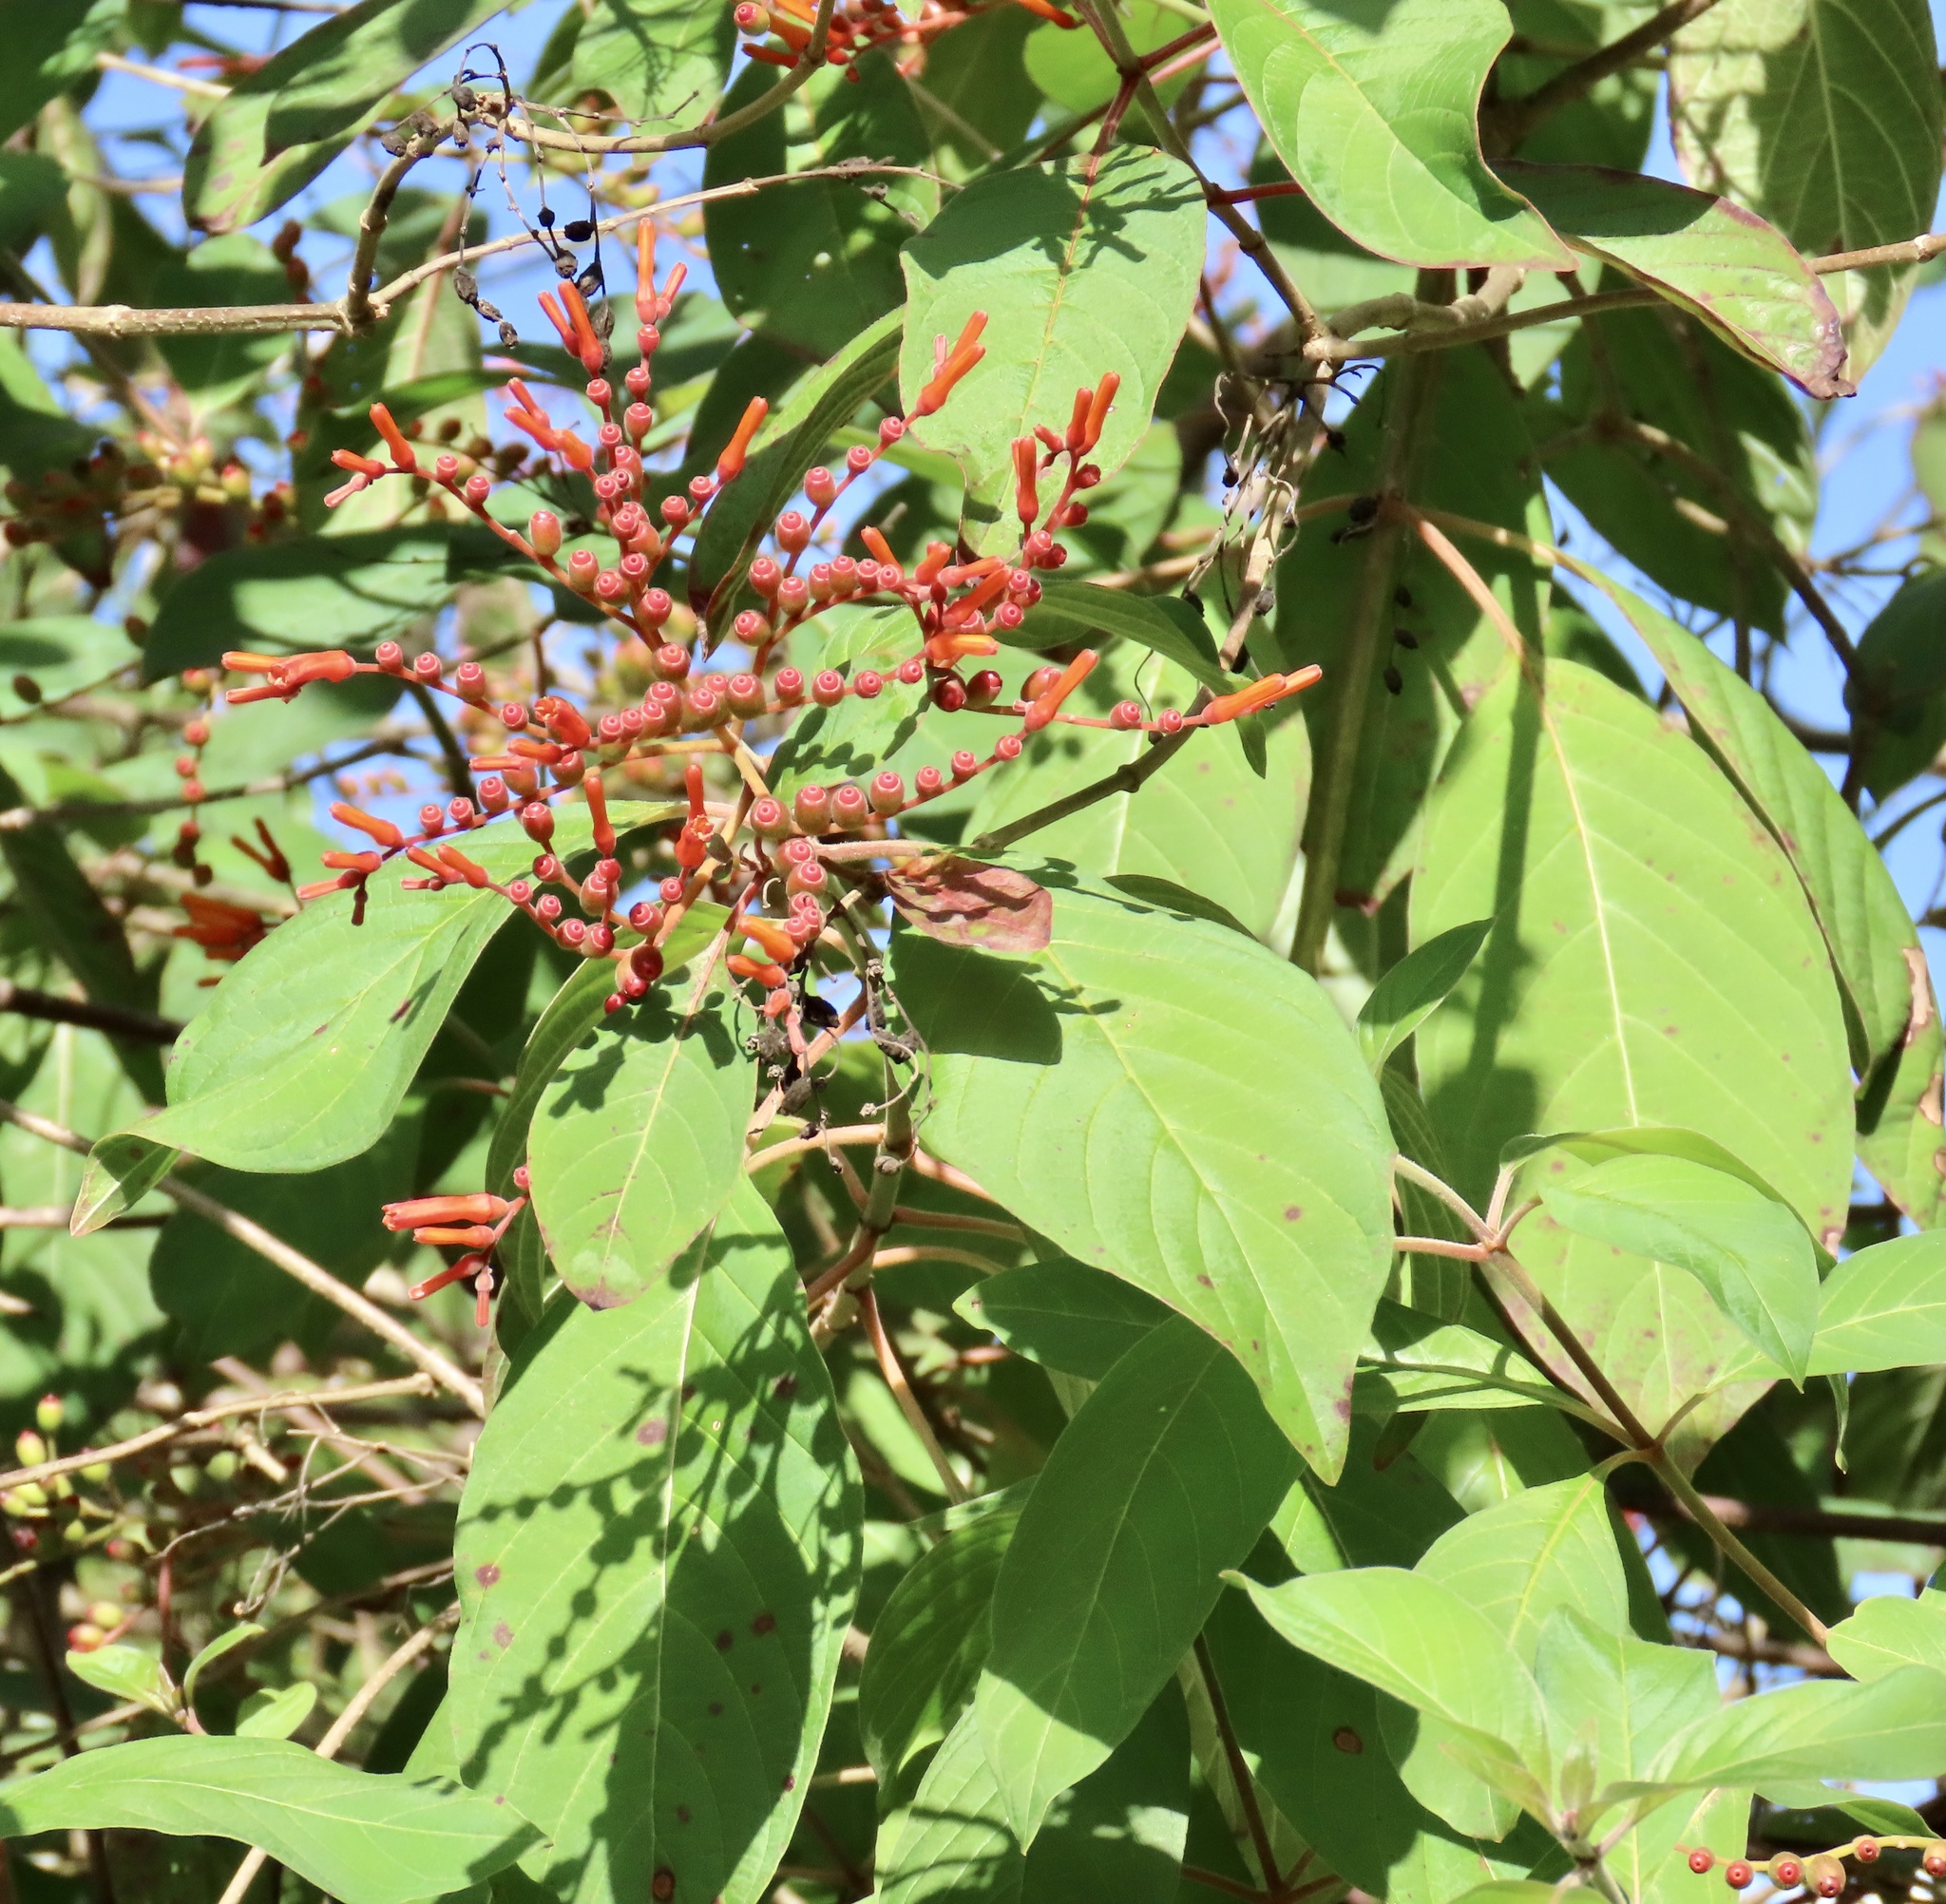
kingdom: Plantae
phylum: Tracheophyta
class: Magnoliopsida
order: Gentianales
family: Rubiaceae
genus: Hamelia
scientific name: Hamelia patens
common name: Redhead
